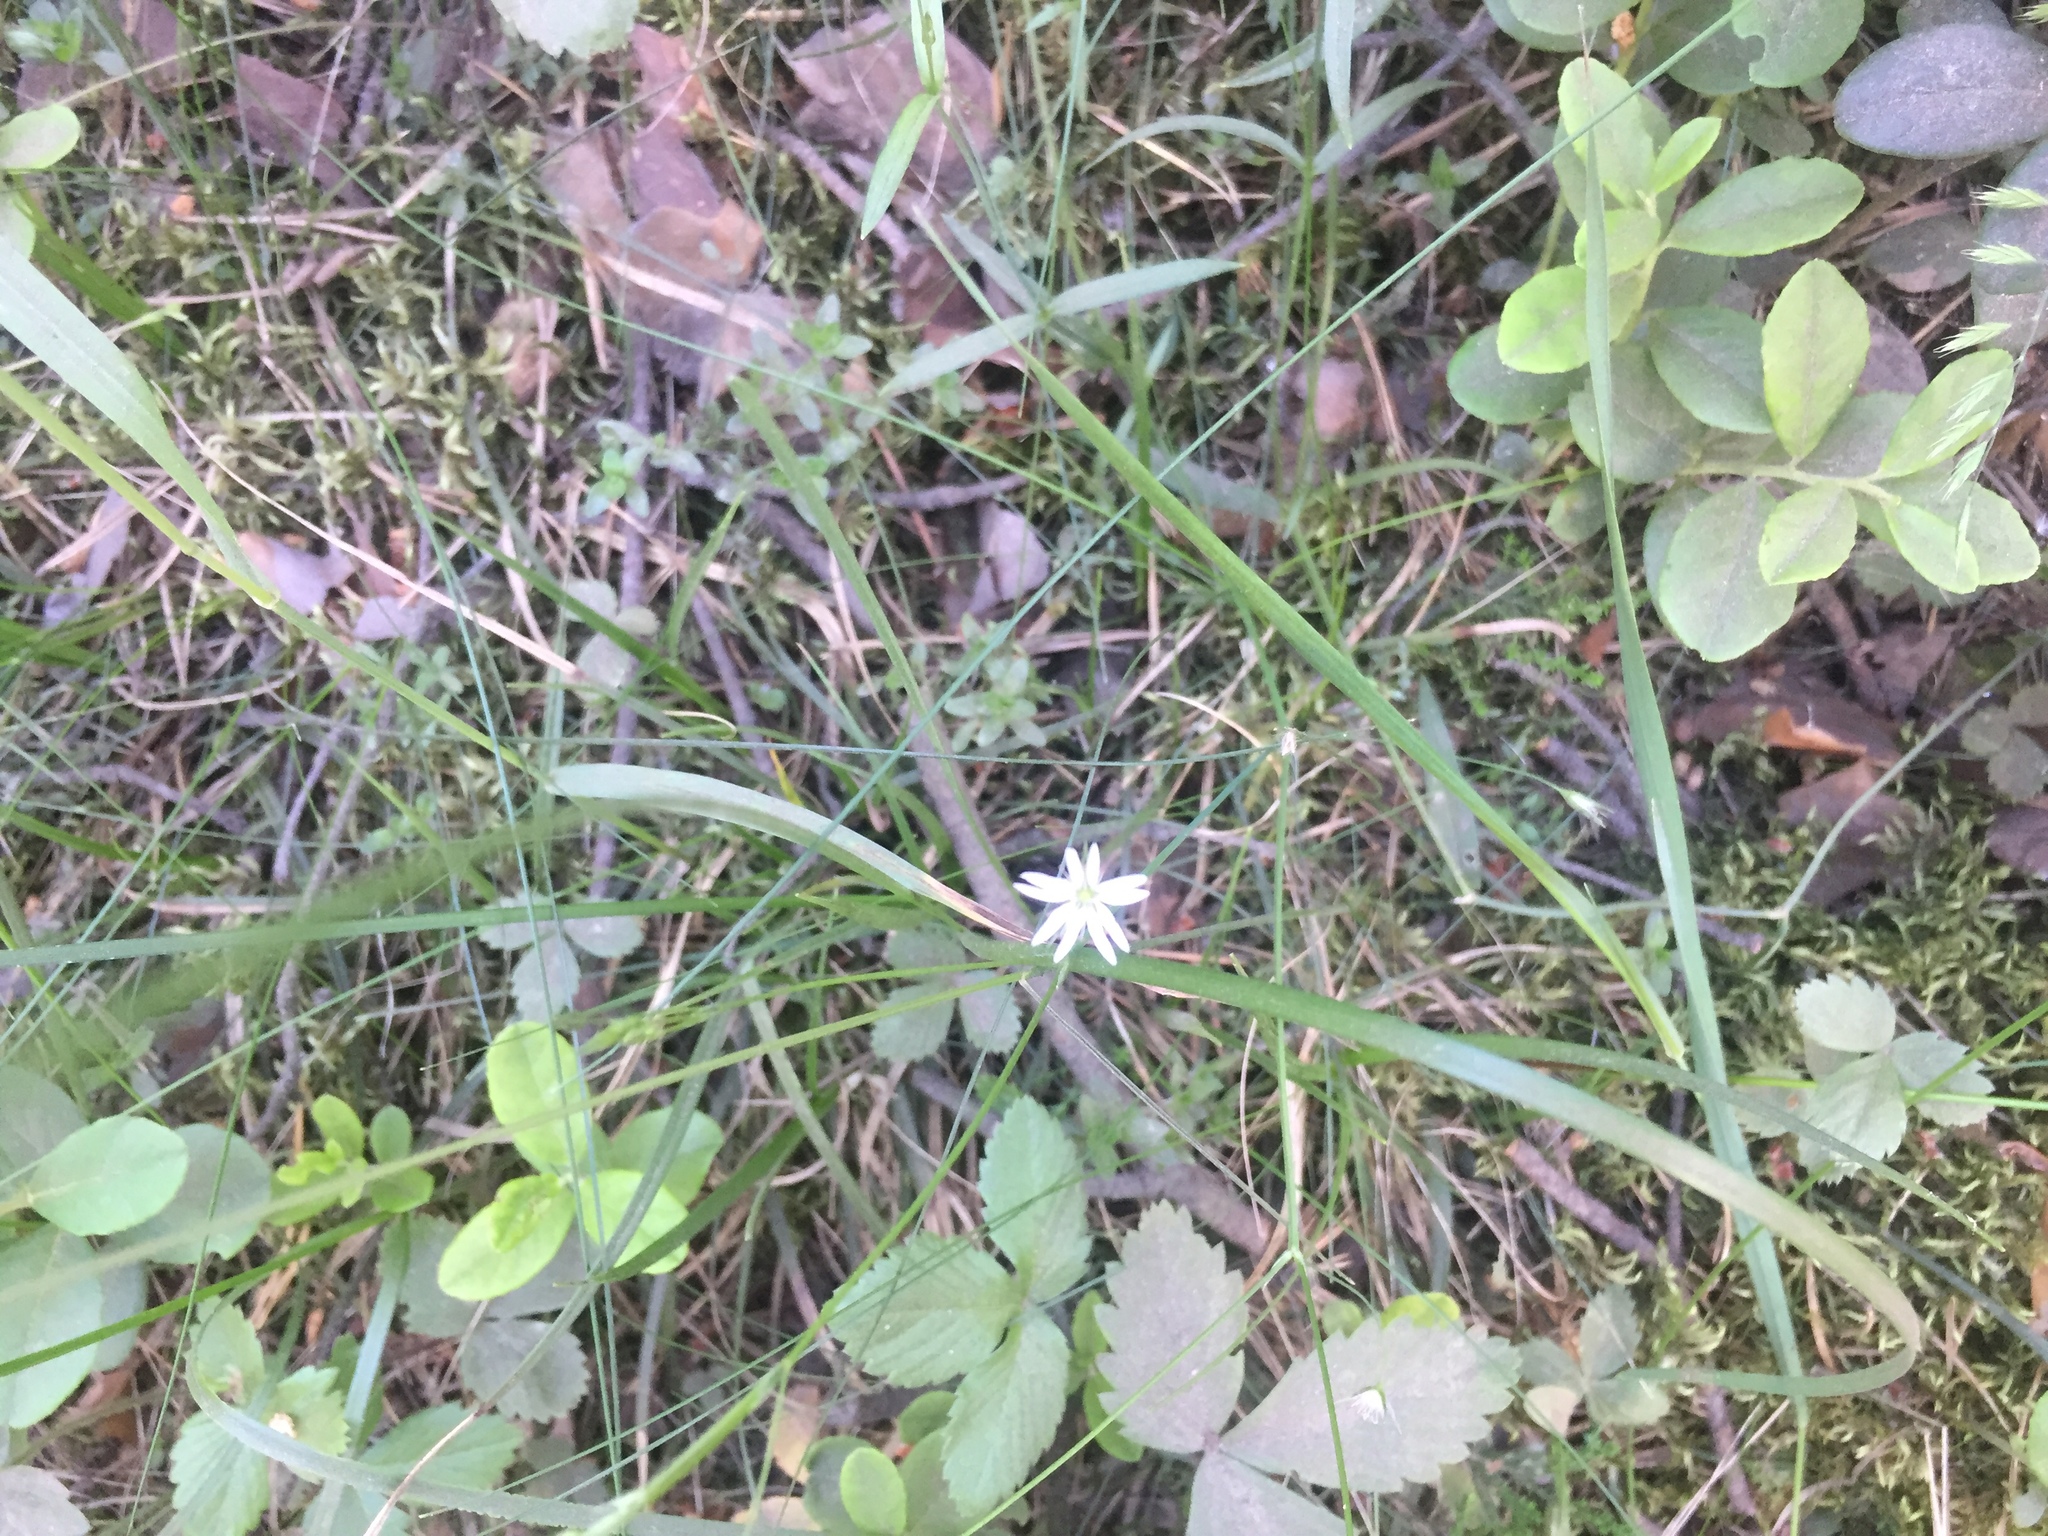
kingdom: Plantae
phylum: Tracheophyta
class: Magnoliopsida
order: Caryophyllales
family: Caryophyllaceae
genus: Stellaria
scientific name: Stellaria palustris
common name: Marsh stitchwort
